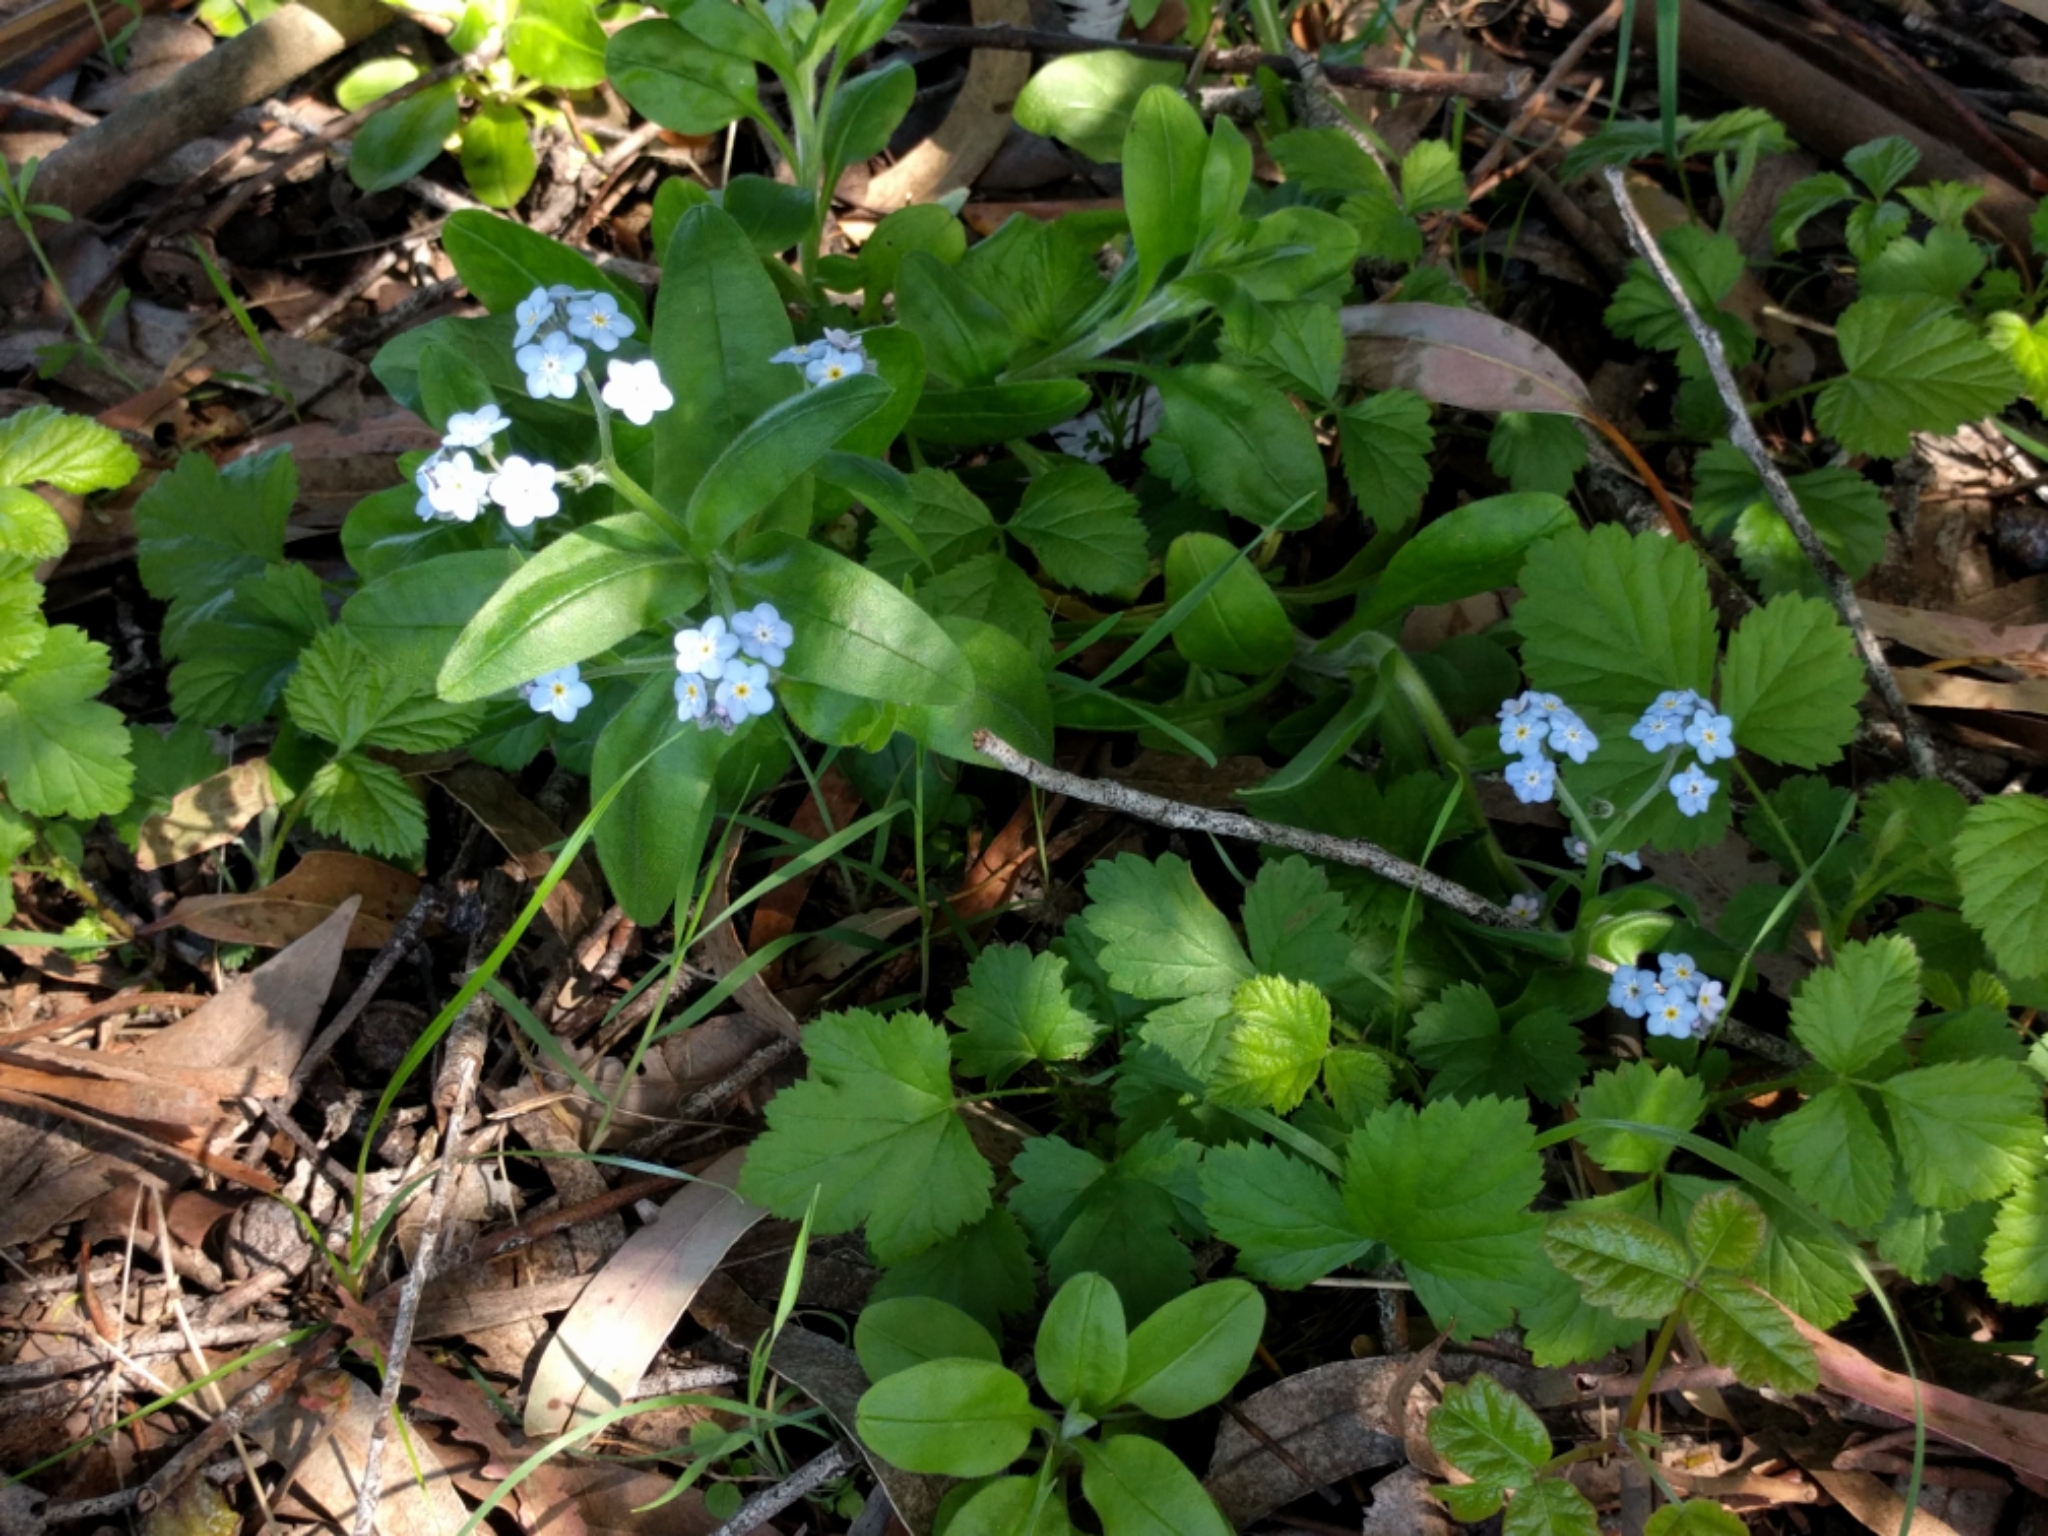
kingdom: Plantae
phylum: Tracheophyta
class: Magnoliopsida
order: Boraginales
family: Boraginaceae
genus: Myosotis
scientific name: Myosotis latifolia
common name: Broadleaf forget-me-not
